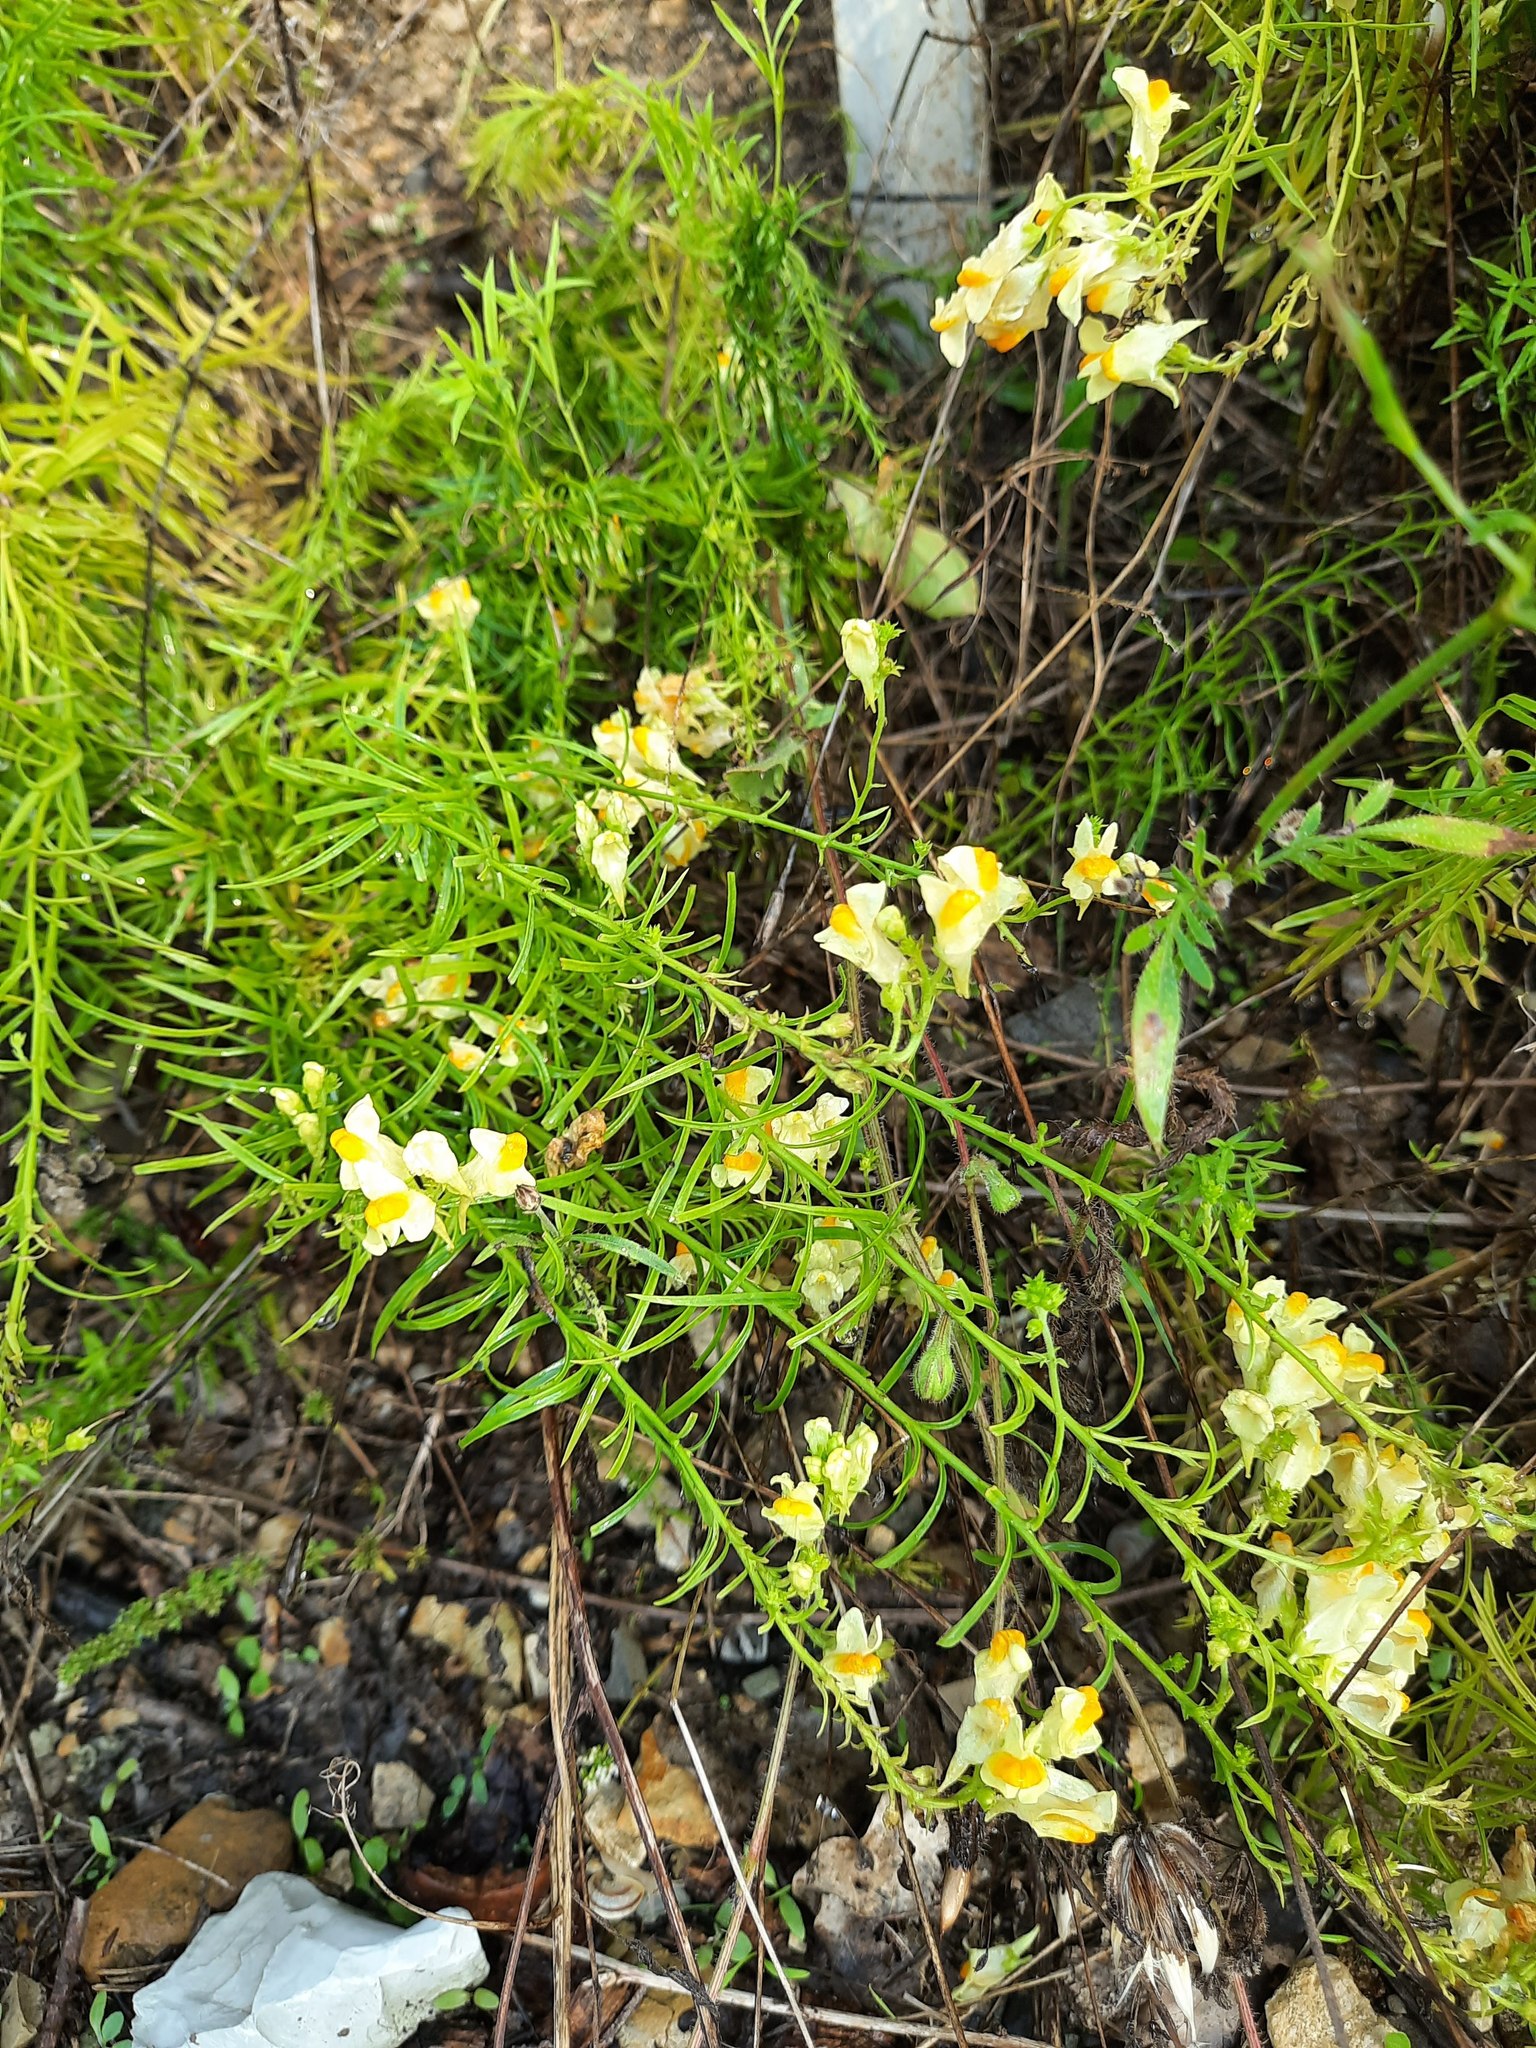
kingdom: Plantae
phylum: Tracheophyta
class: Magnoliopsida
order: Lamiales
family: Plantaginaceae
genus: Linaria
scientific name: Linaria vulgaris
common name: Butter and eggs
